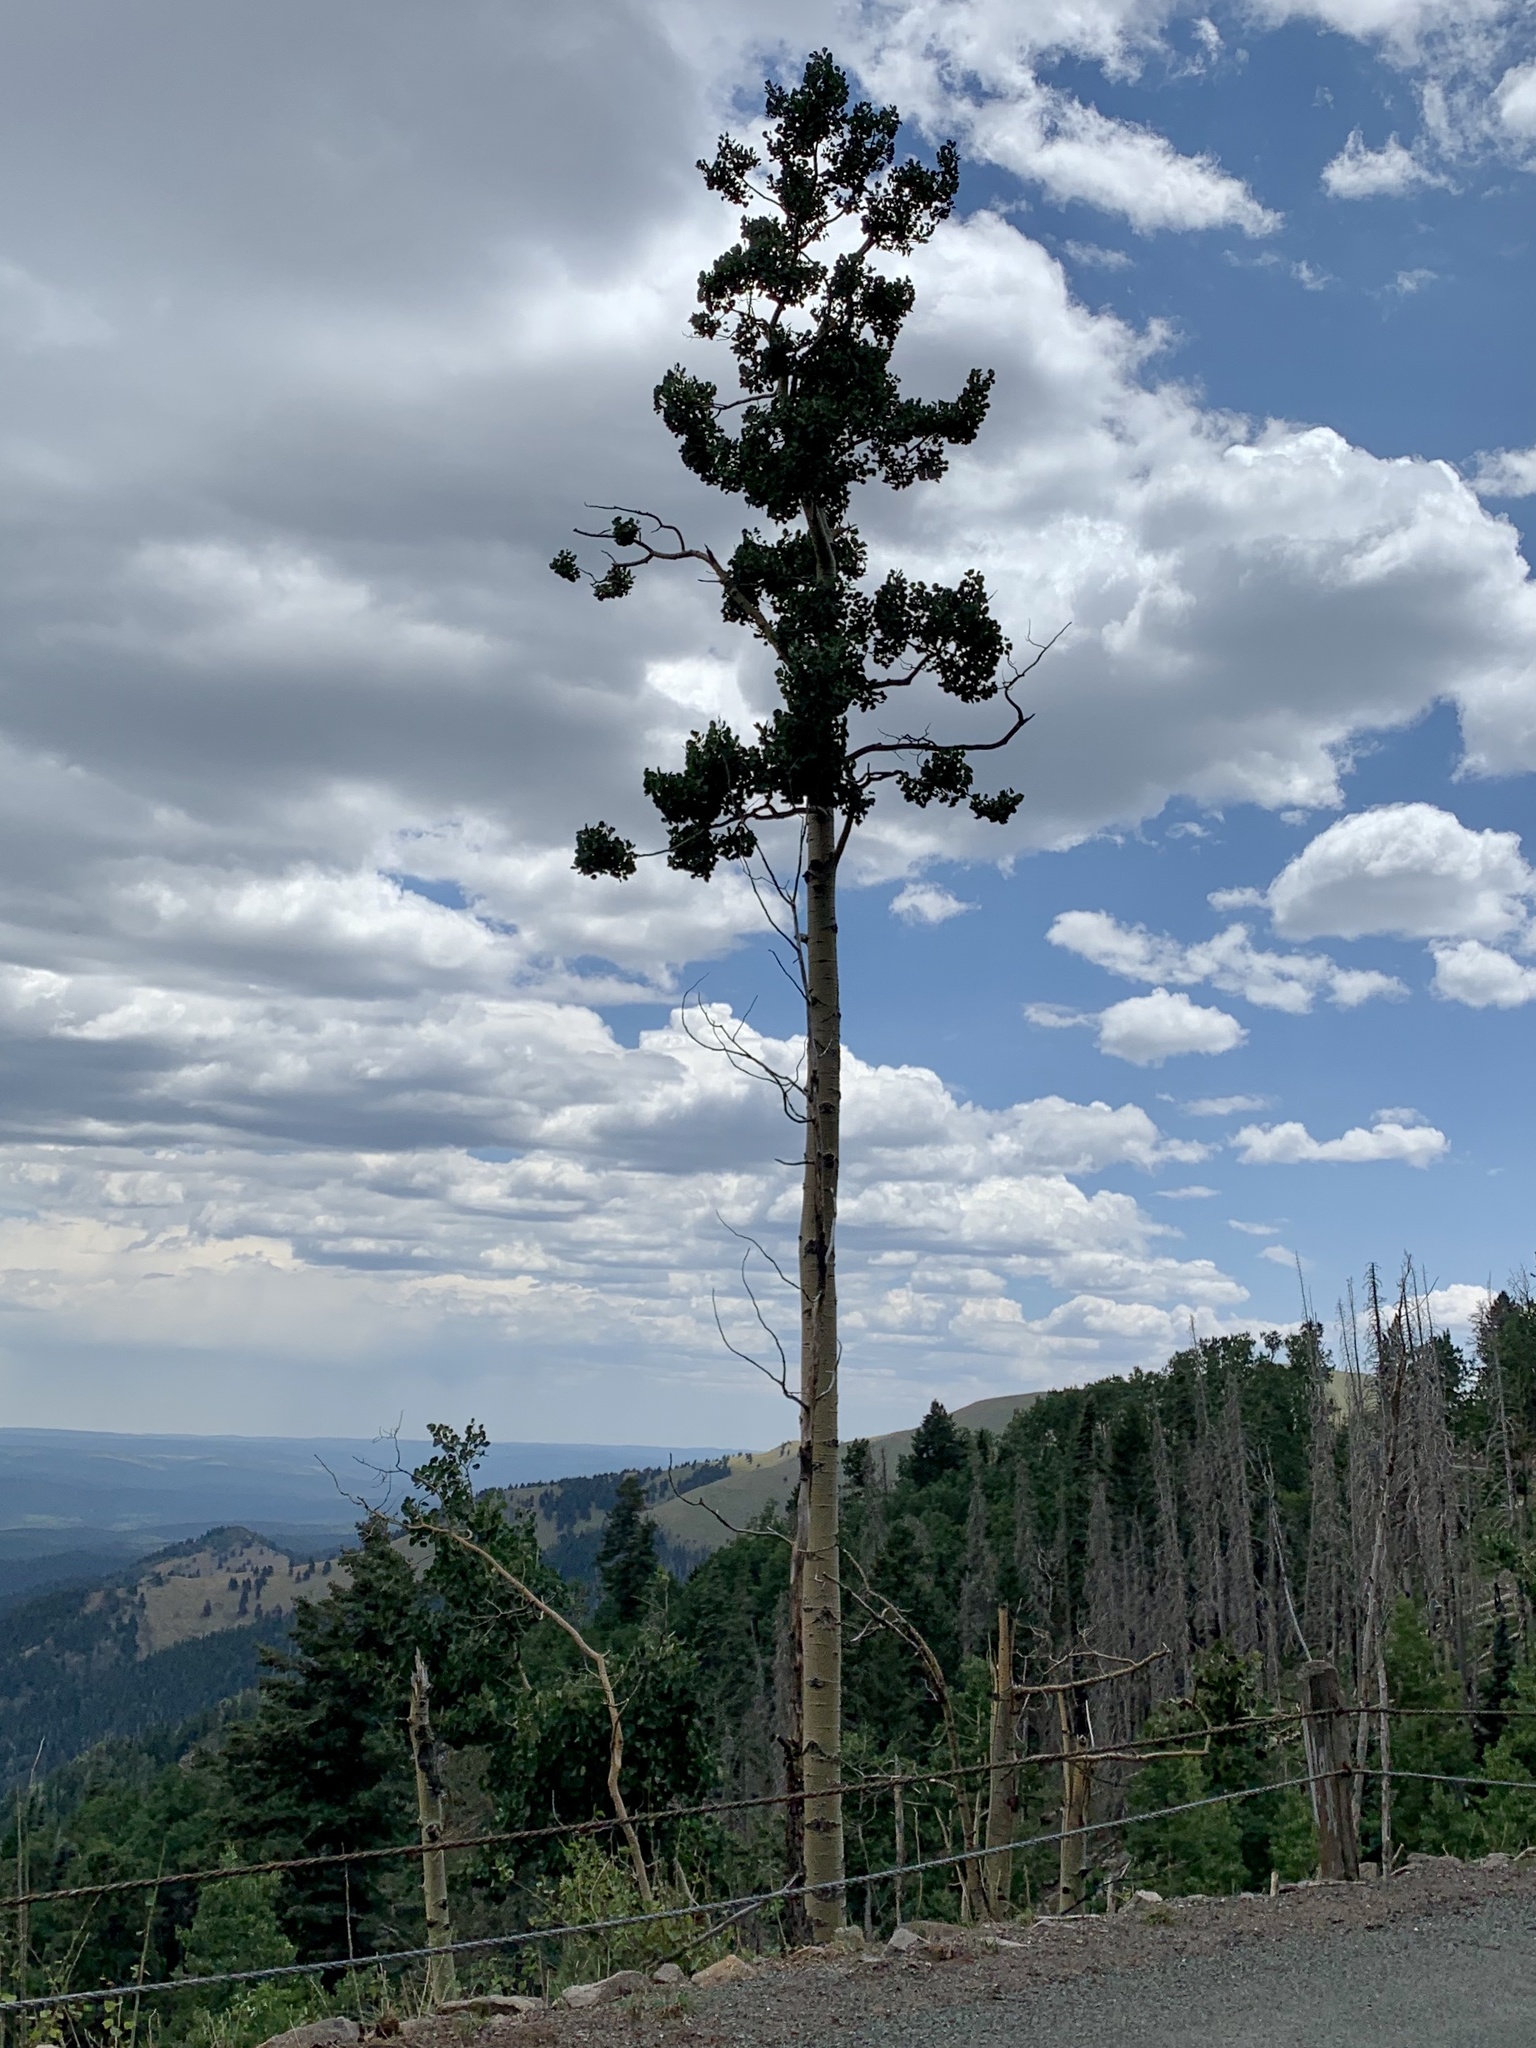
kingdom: Plantae
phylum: Tracheophyta
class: Magnoliopsida
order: Malpighiales
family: Salicaceae
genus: Populus
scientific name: Populus tremuloides
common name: Quaking aspen
